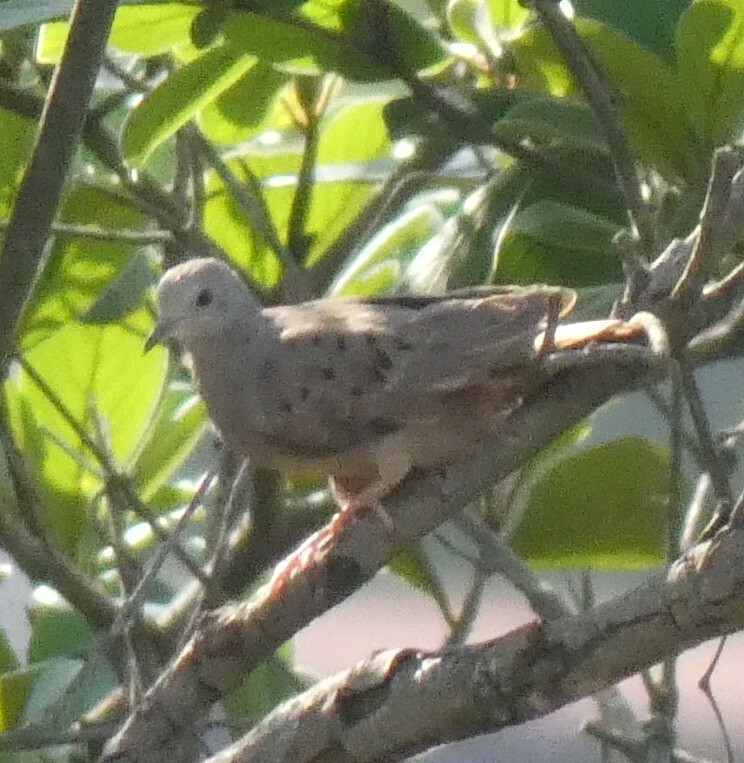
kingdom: Animalia
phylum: Chordata
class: Aves
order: Columbiformes
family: Columbidae
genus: Columbina
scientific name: Columbina talpacoti
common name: Ruddy ground dove
